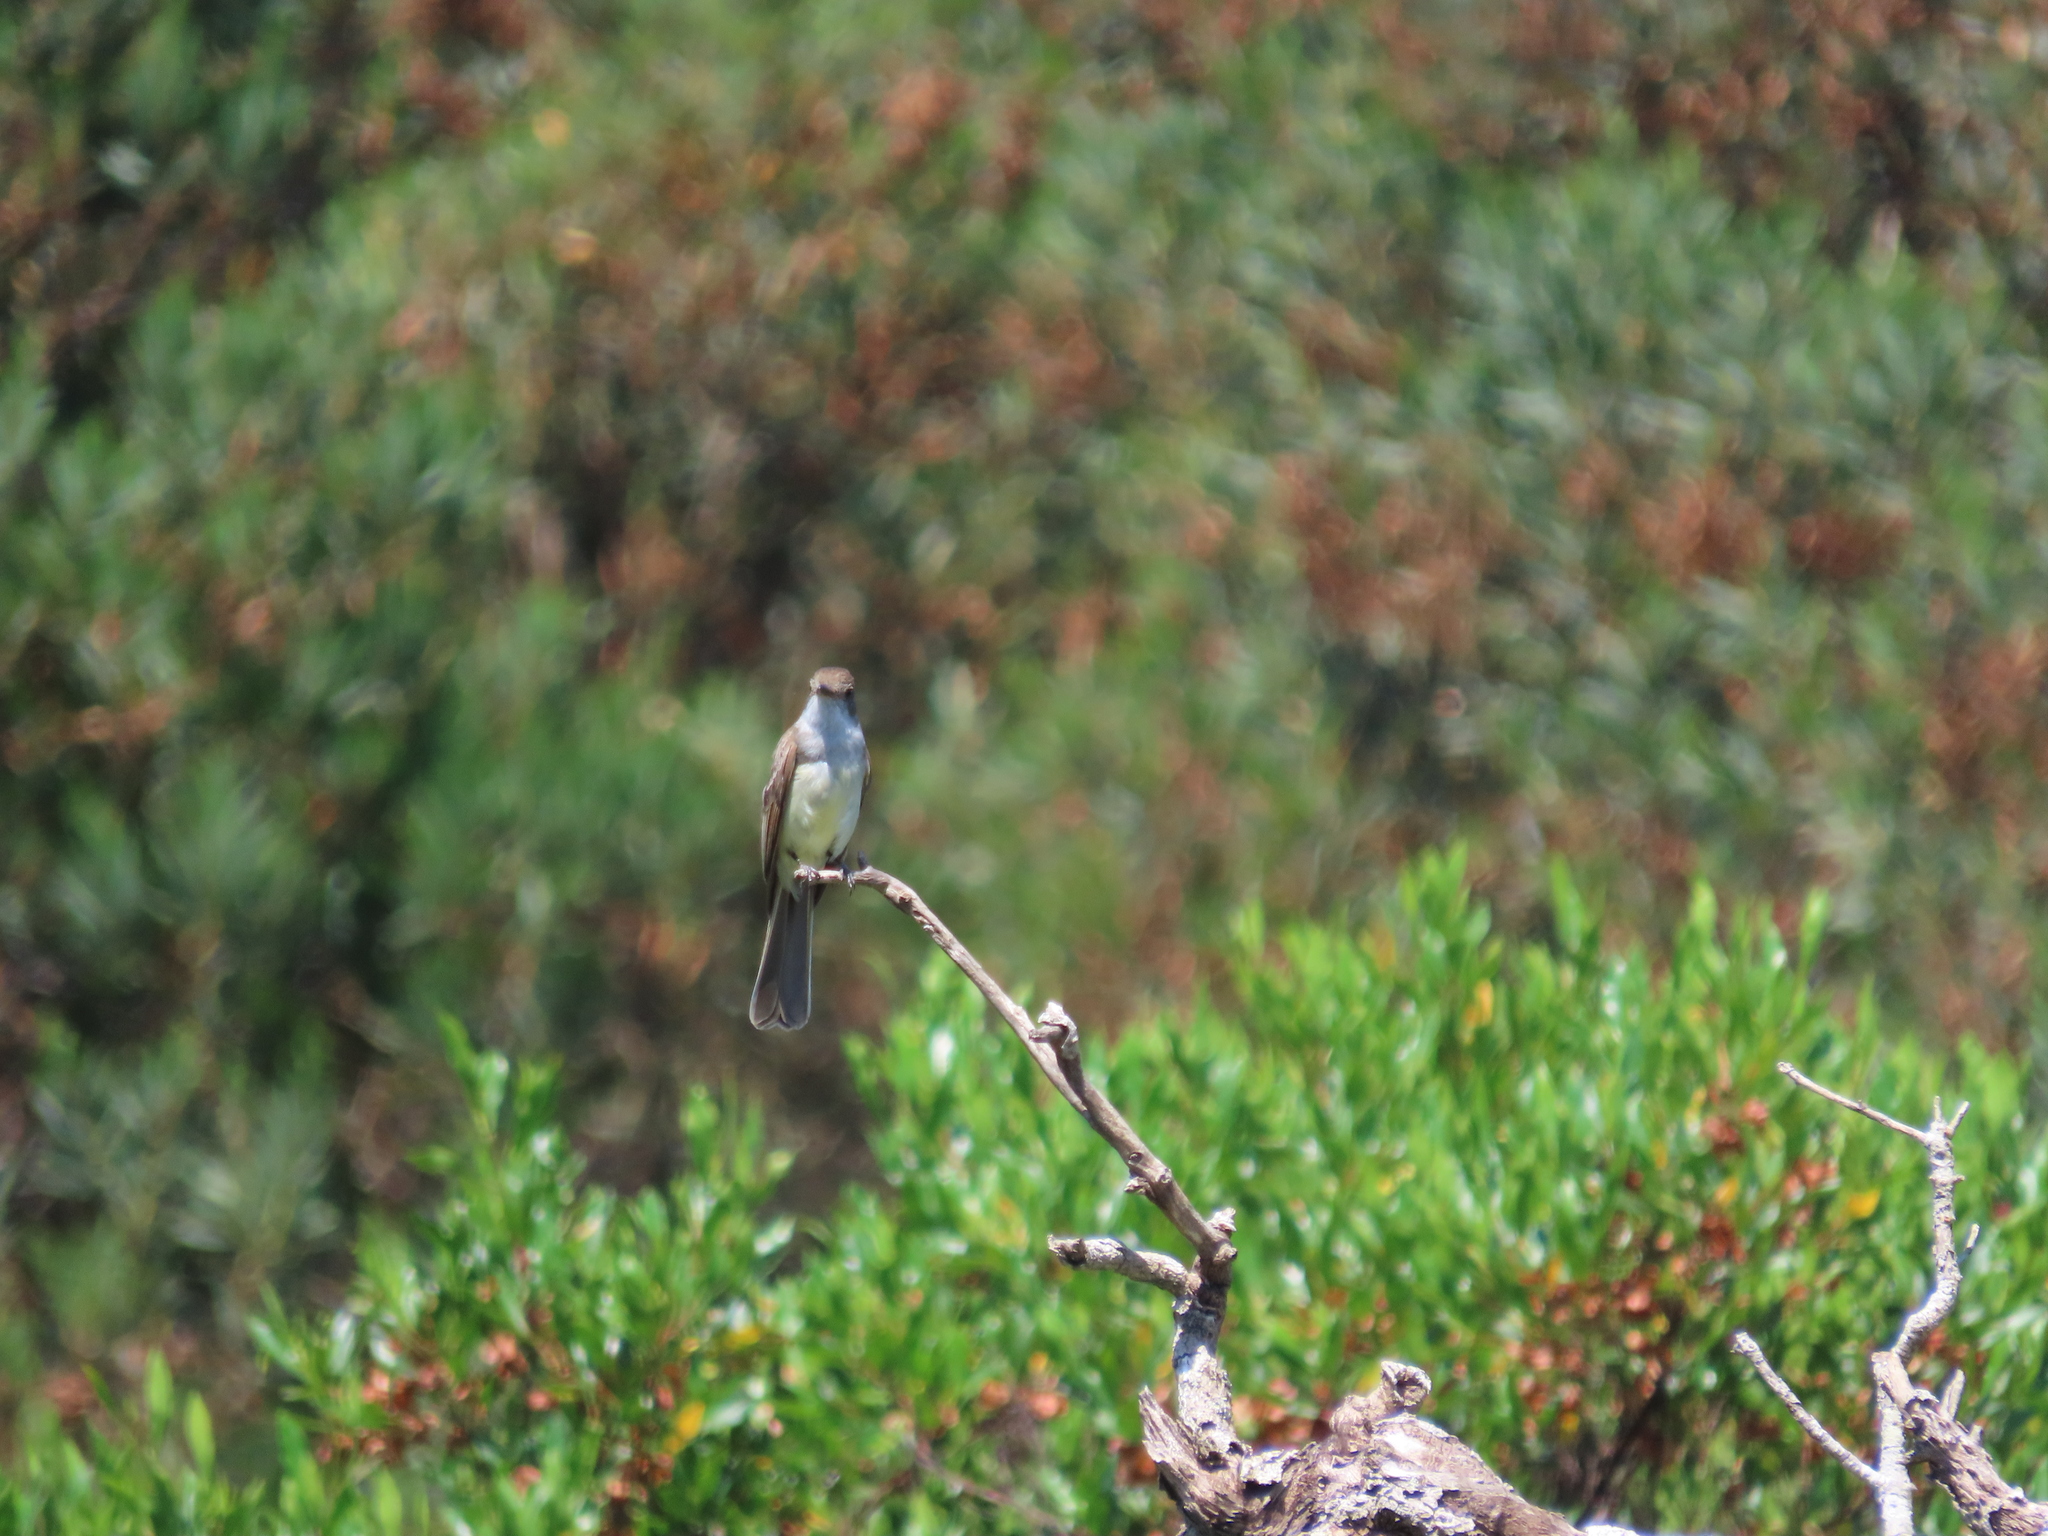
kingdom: Animalia
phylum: Chordata
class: Aves
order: Passeriformes
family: Tyrannidae
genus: Myiarchus
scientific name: Myiarchus swainsoni
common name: Swainson's flycatcher
